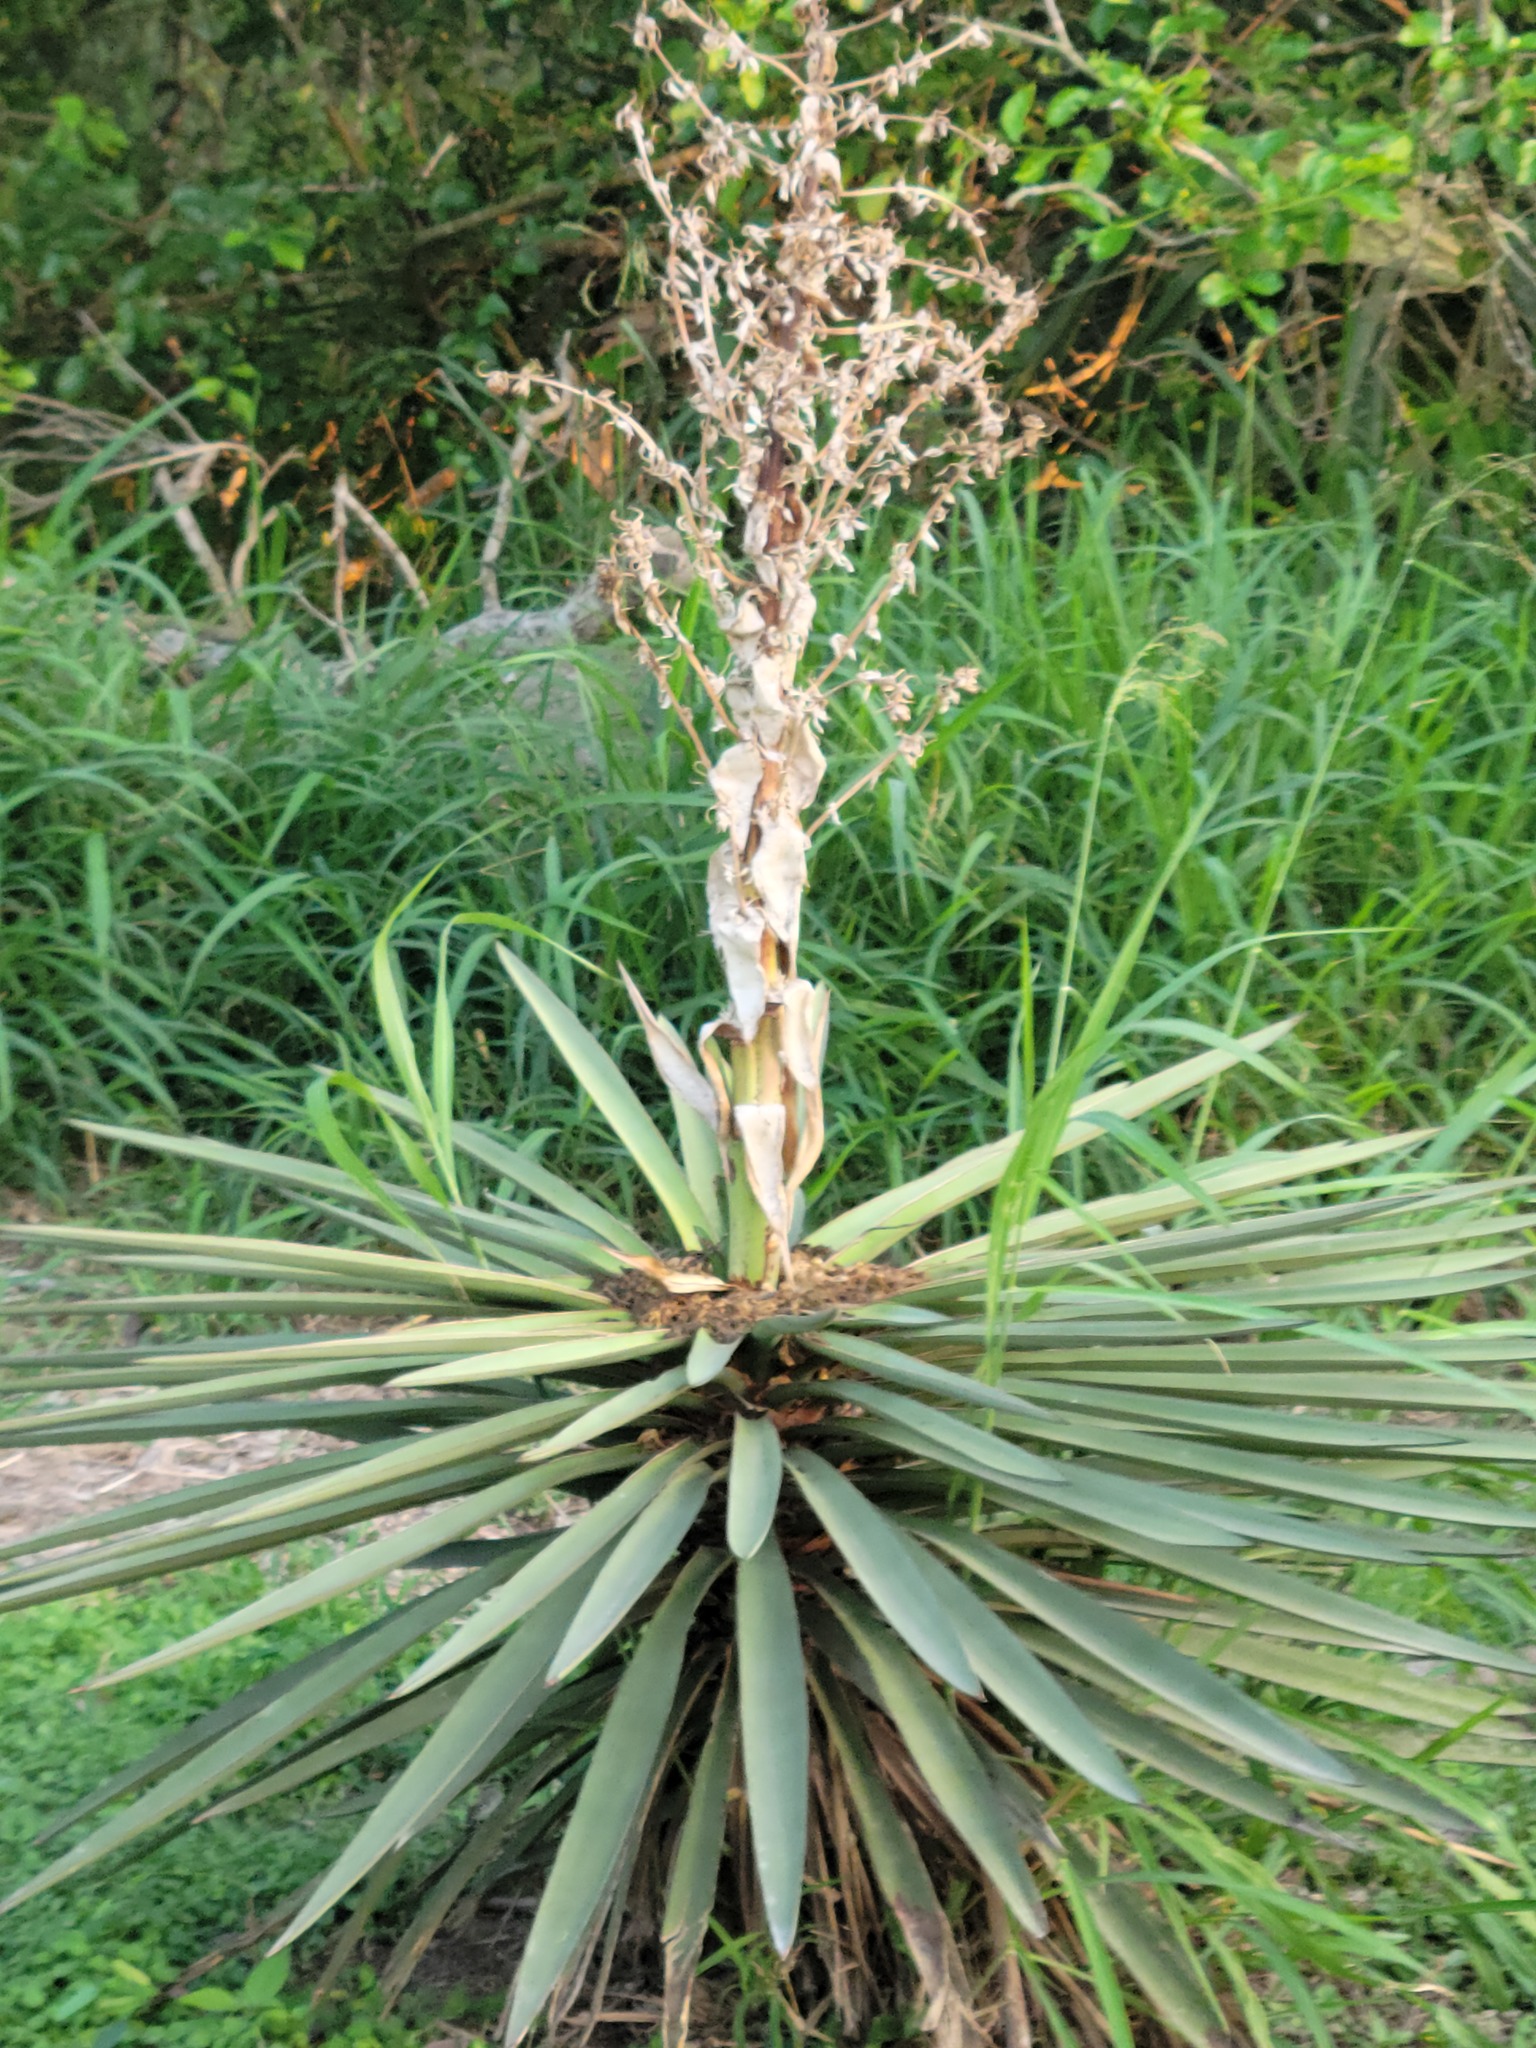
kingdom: Plantae
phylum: Tracheophyta
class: Liliopsida
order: Asparagales
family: Asparagaceae
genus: Yucca
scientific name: Yucca treculiana
